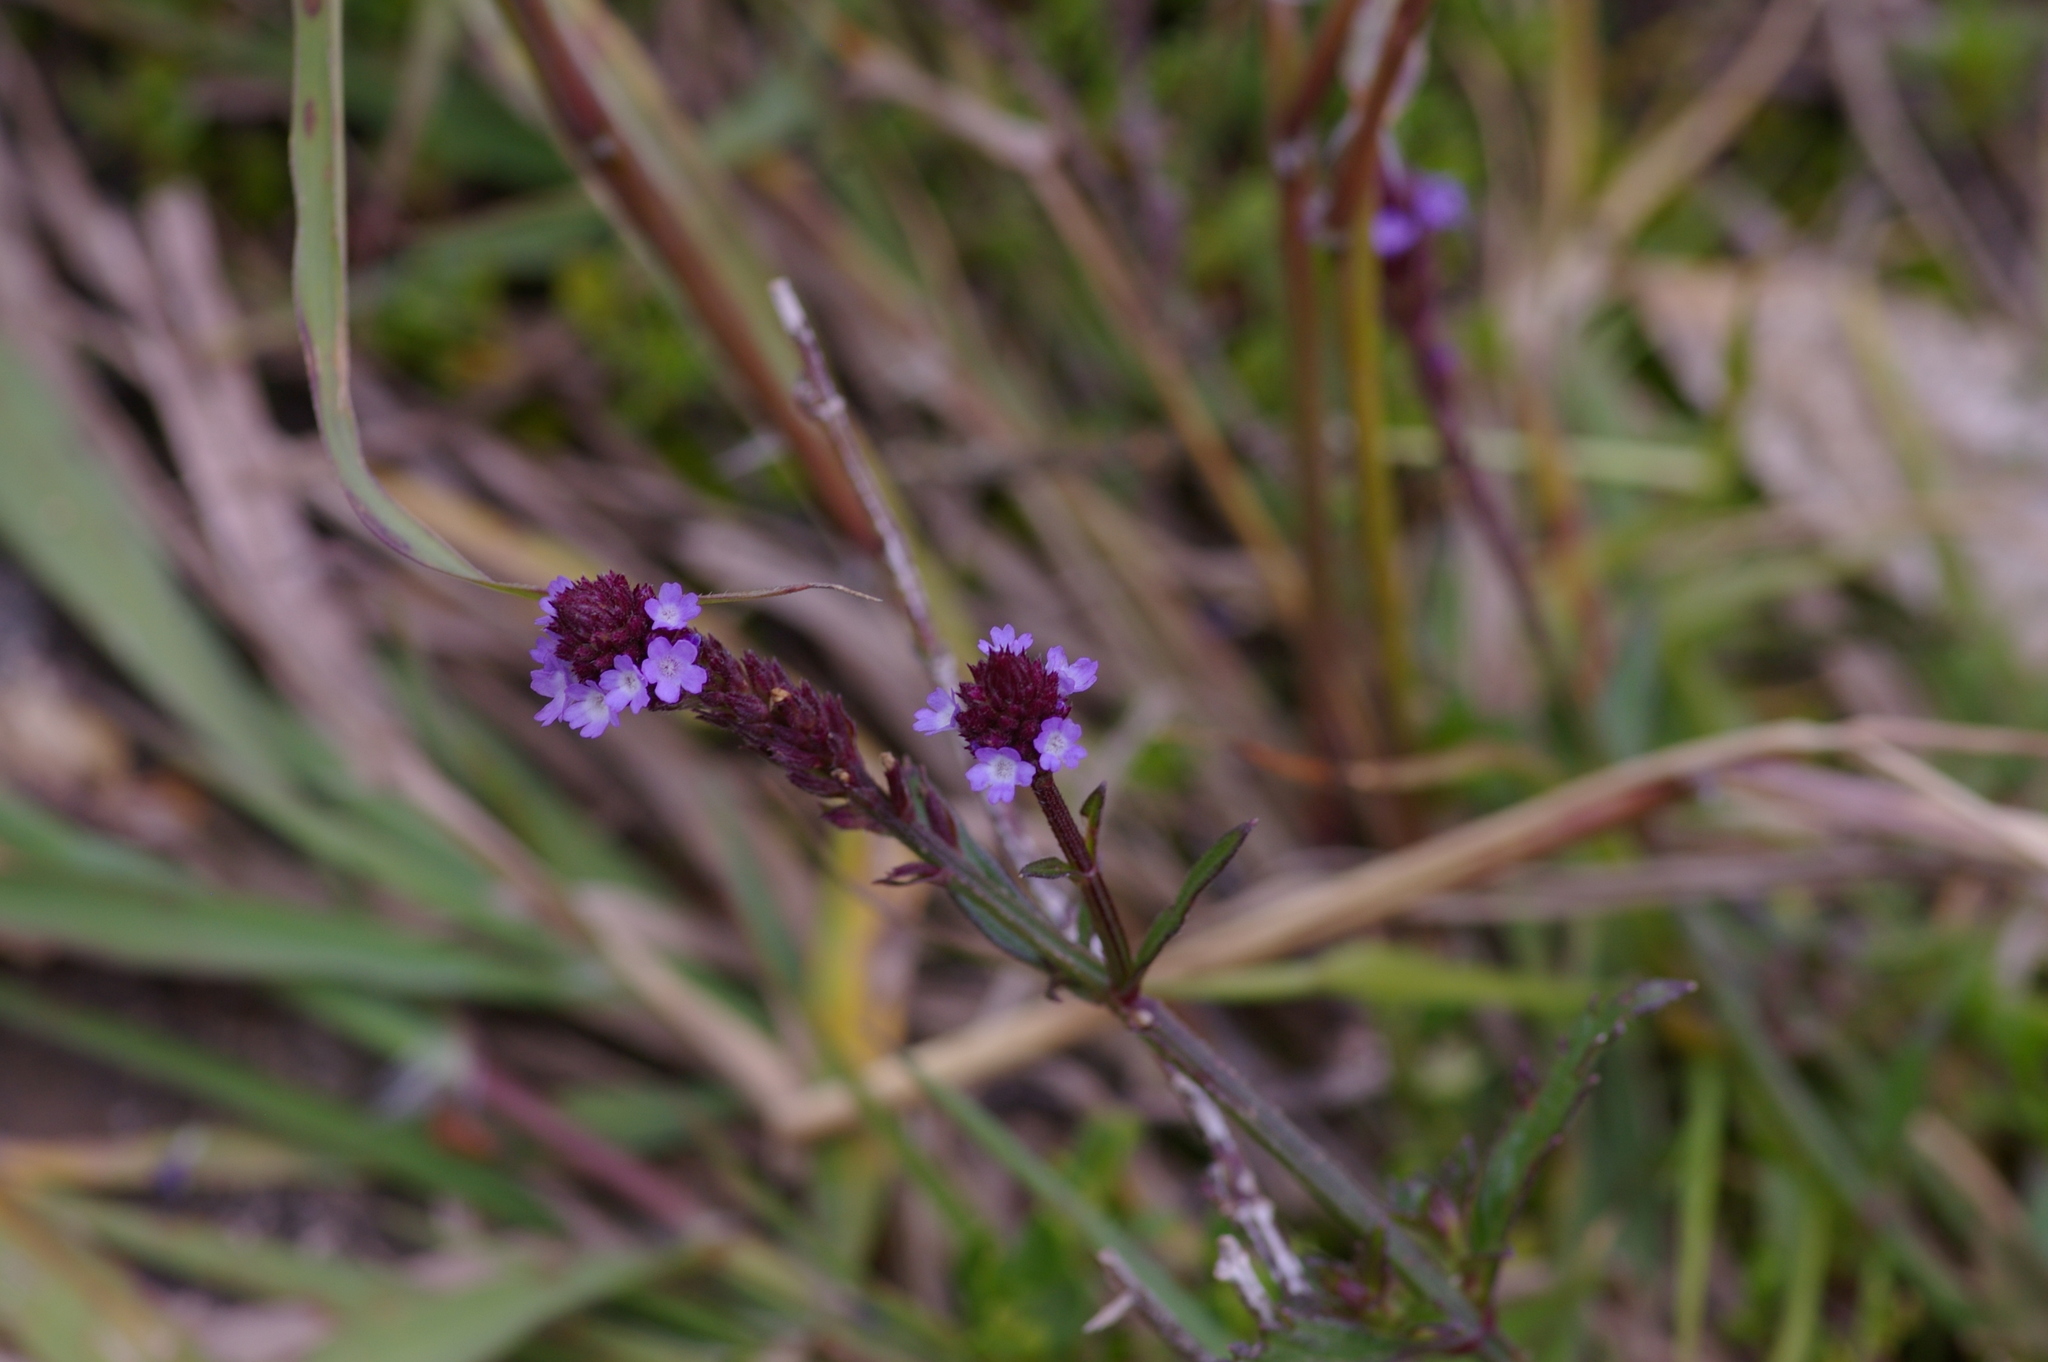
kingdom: Plantae
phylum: Tracheophyta
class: Magnoliopsida
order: Lamiales
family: Verbenaceae
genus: Verbena
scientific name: Verbena litoralis
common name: Seashore vervain
